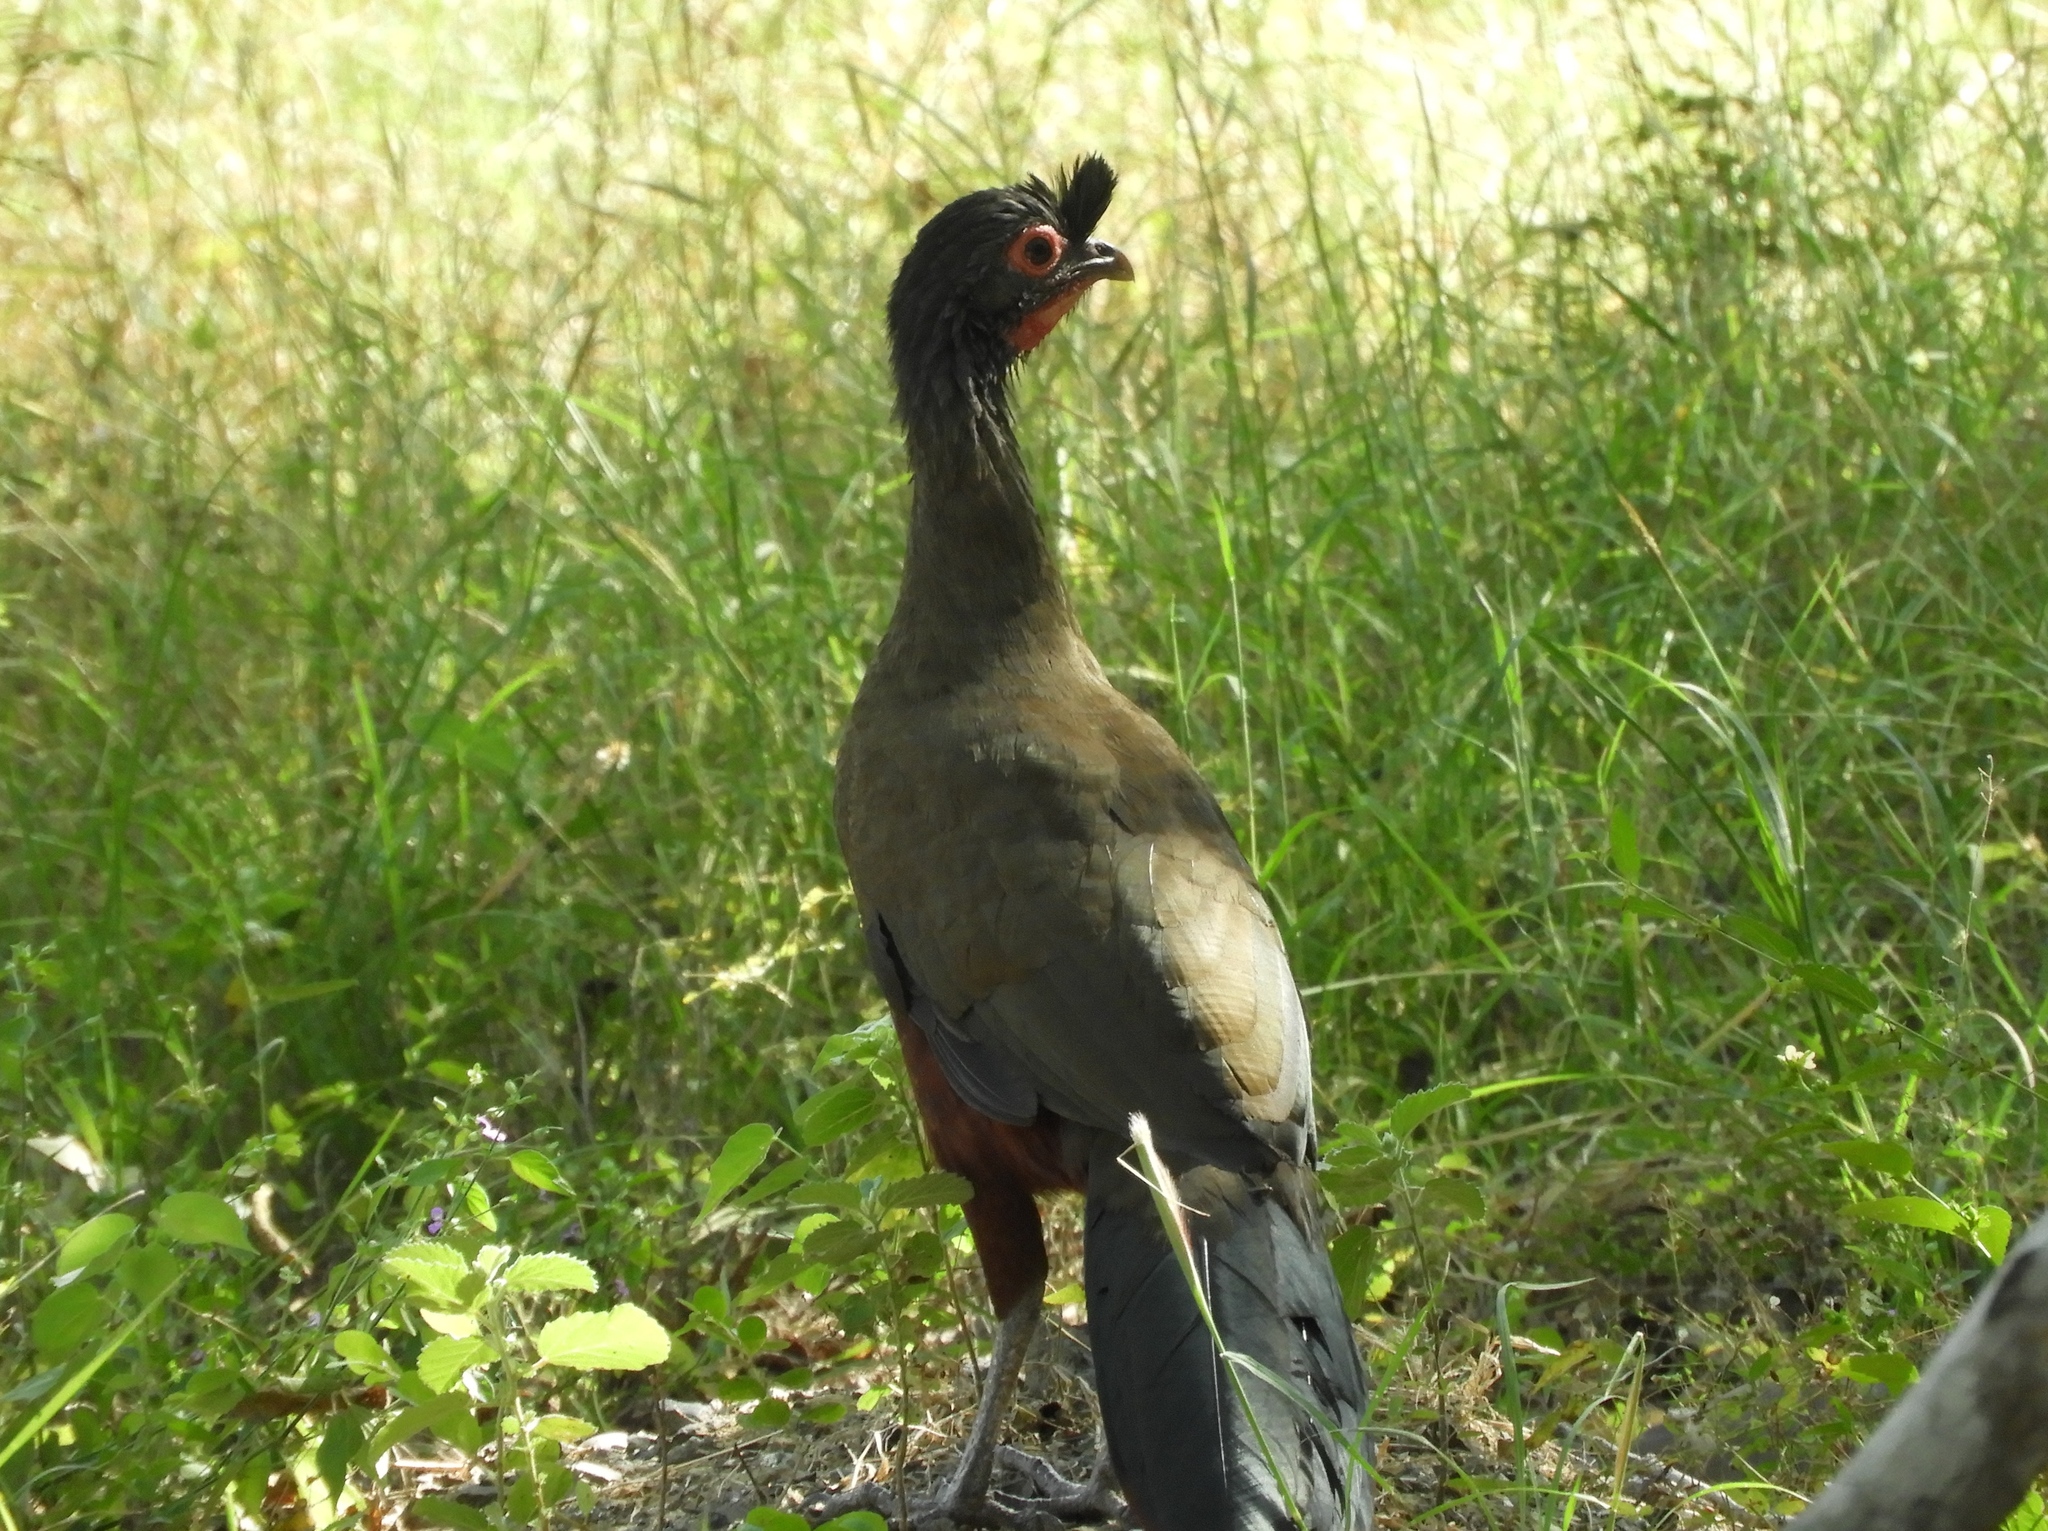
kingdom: Animalia
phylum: Chordata
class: Aves
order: Galliformes
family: Cracidae
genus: Ortalis
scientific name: Ortalis wagleri
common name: Rufous-bellied chachalaca
